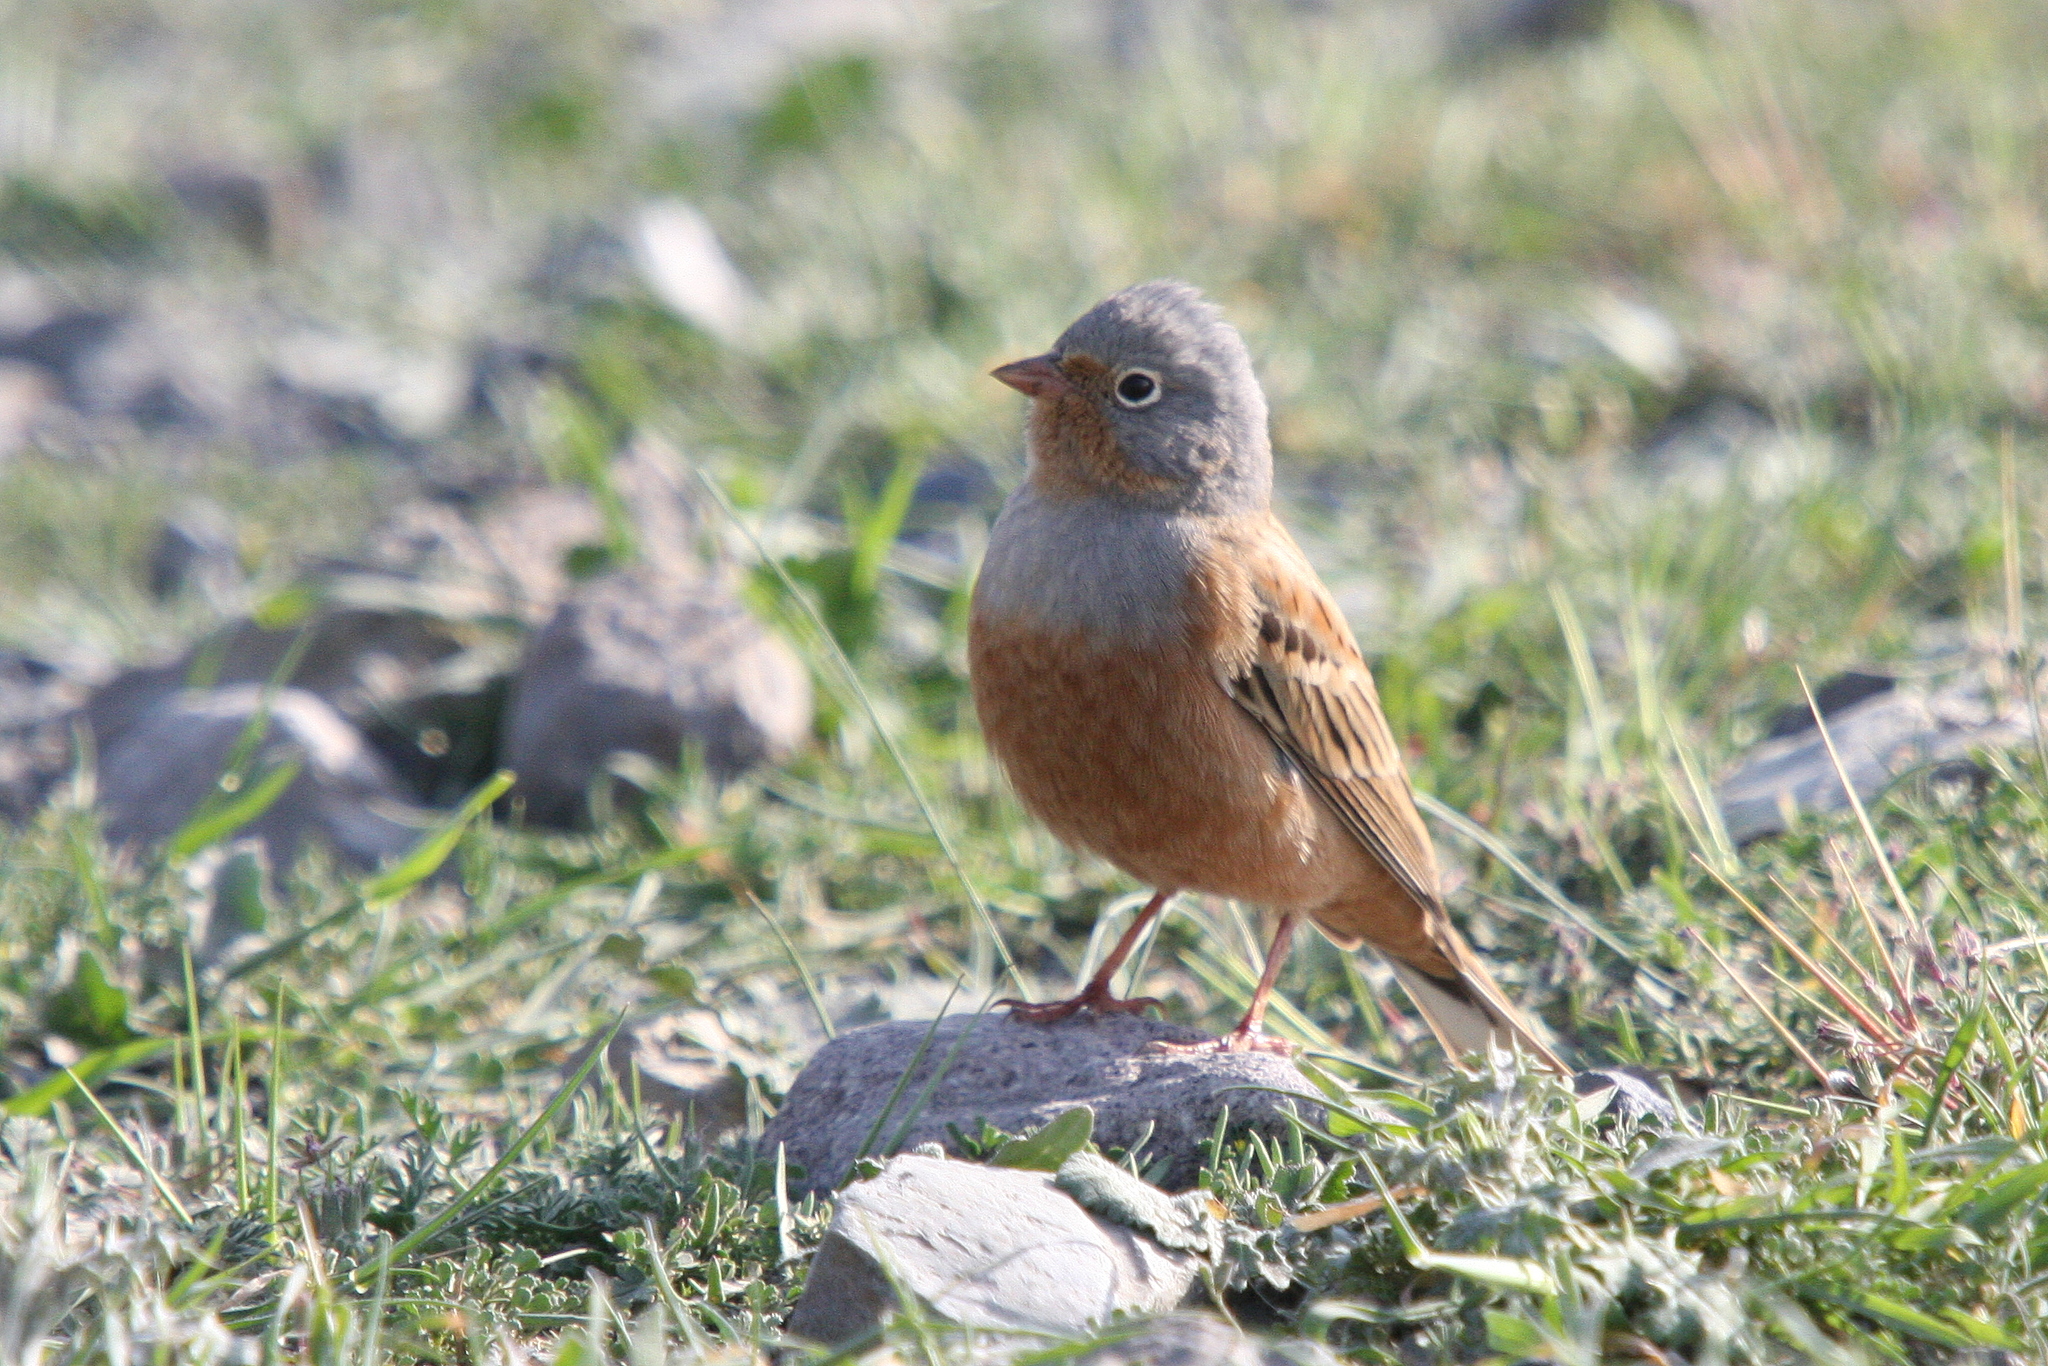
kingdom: Animalia
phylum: Chordata
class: Aves
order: Passeriformes
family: Emberizidae
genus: Emberiza
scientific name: Emberiza caesia
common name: Cretzschmar's bunting
